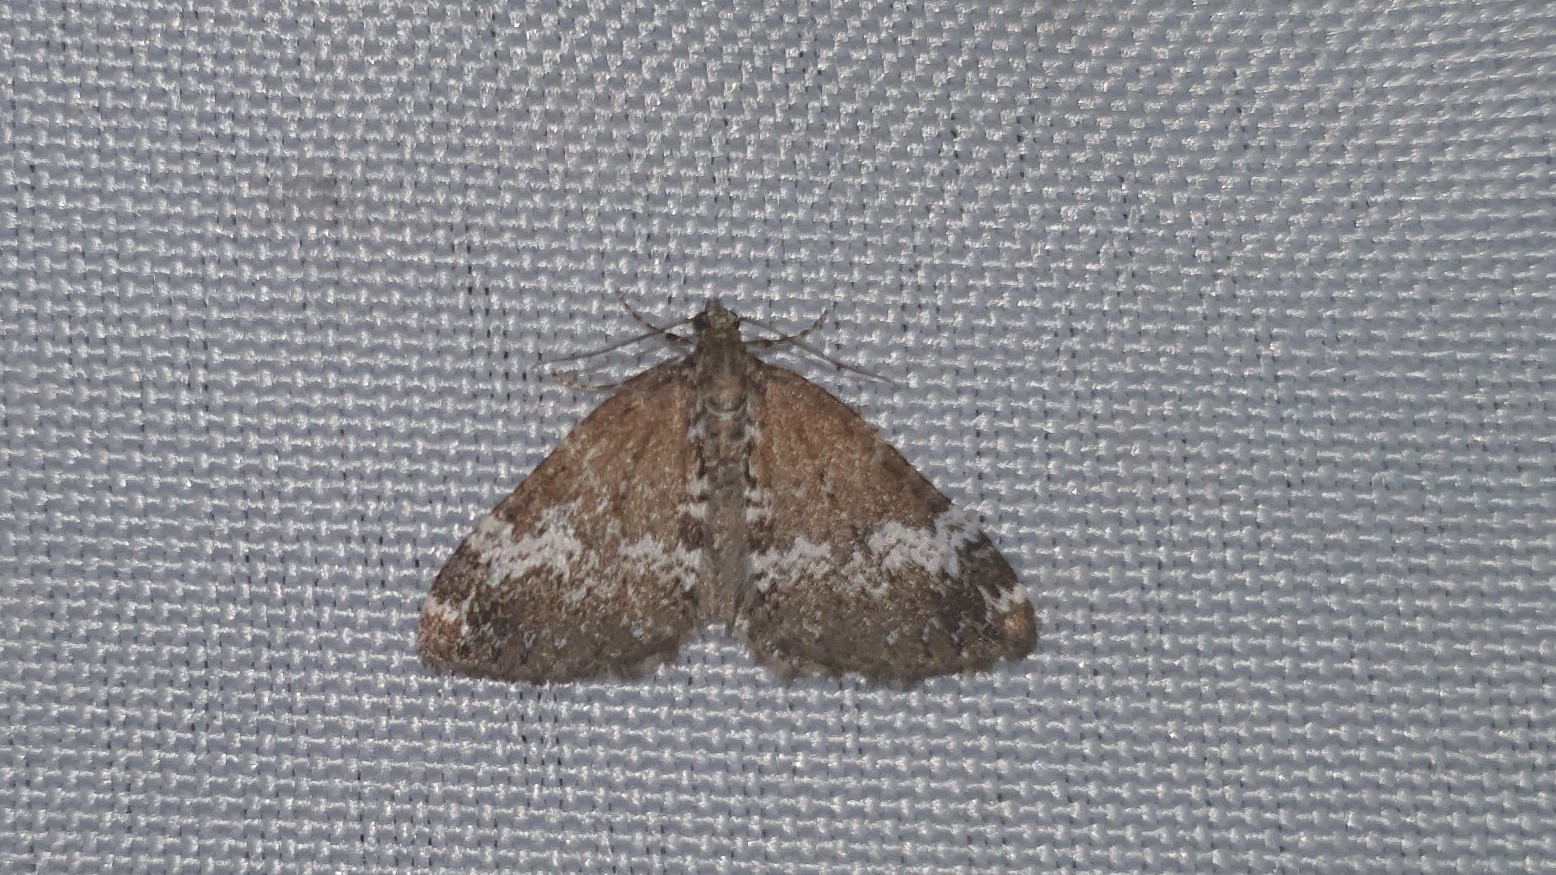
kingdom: Animalia
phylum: Arthropoda
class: Insecta
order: Lepidoptera
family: Geometridae
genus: Perizoma
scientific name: Perizoma alchemillata
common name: Small rivulet
